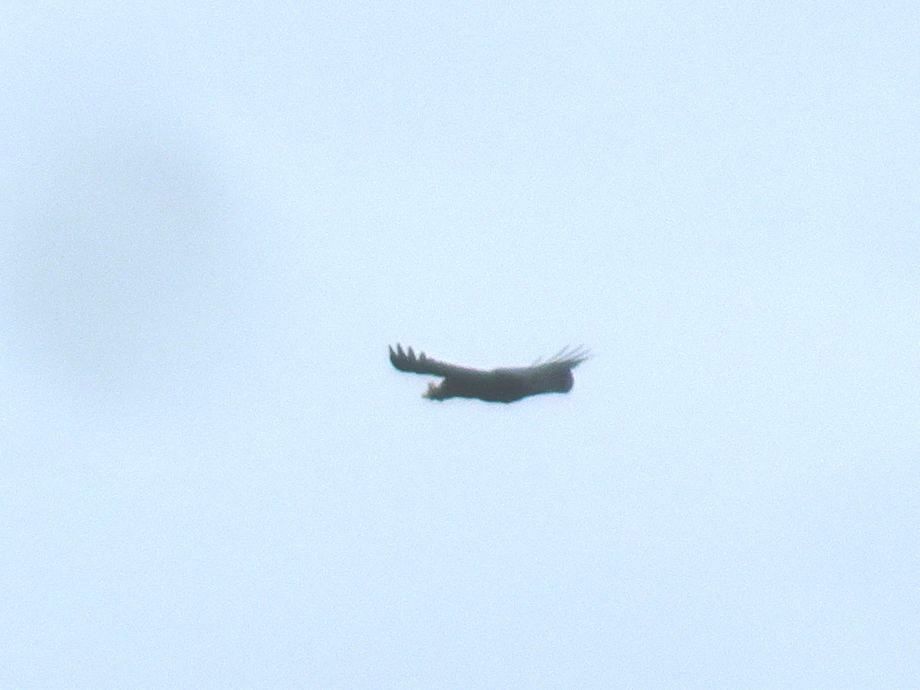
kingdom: Animalia
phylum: Chordata
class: Aves
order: Passeriformes
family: Corvidae
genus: Corvus
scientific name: Corvus albicollis
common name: White-necked raven
